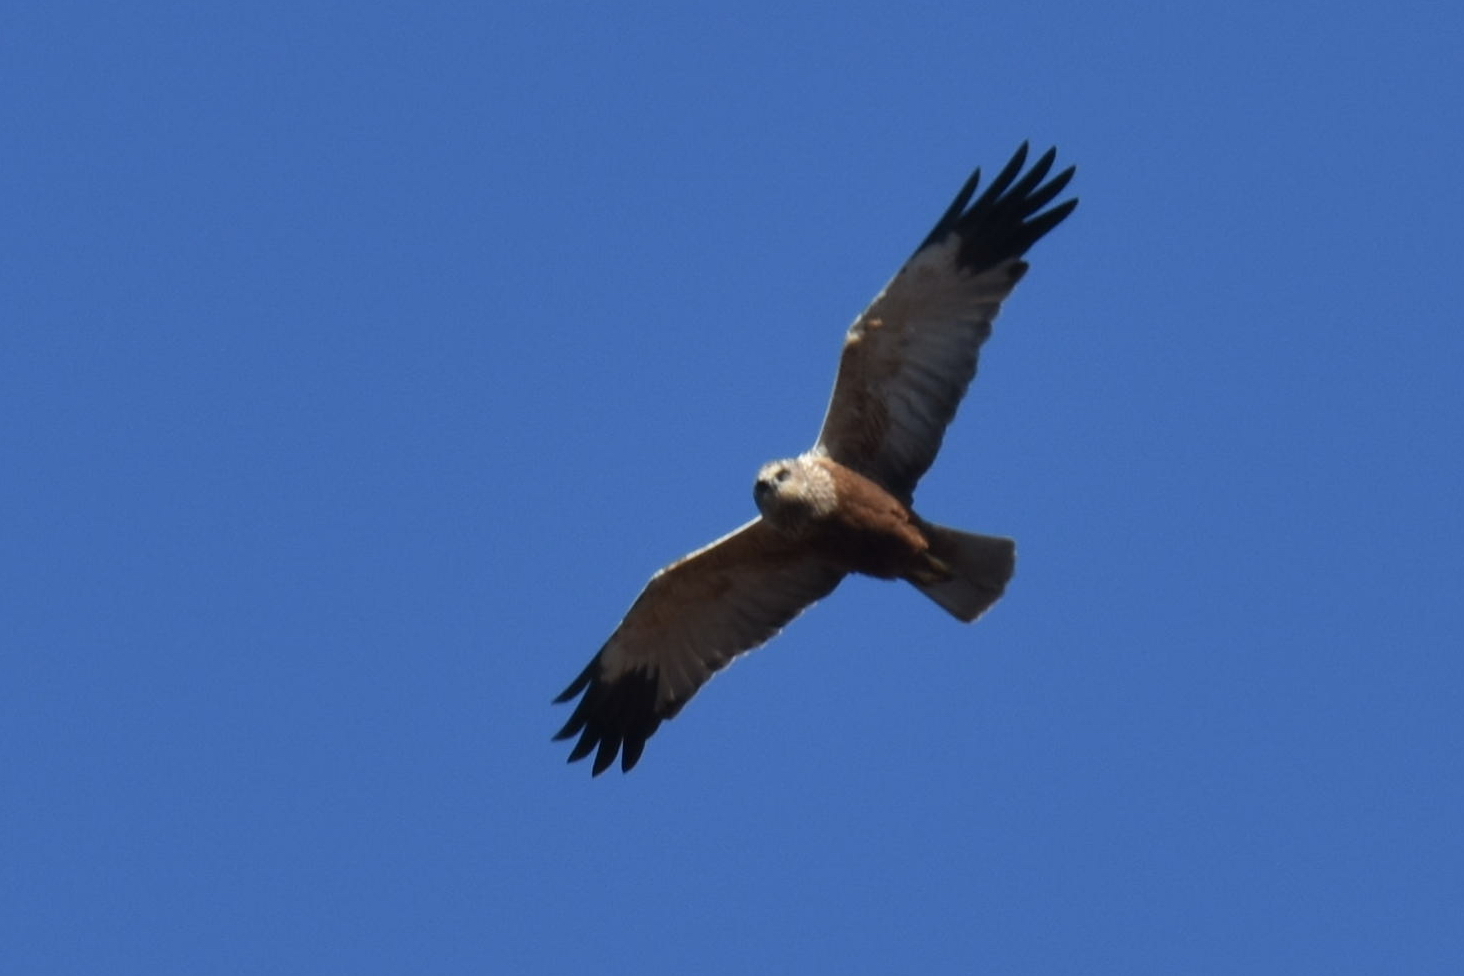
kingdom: Animalia
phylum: Chordata
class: Aves
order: Accipitriformes
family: Accipitridae
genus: Circus
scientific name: Circus aeruginosus
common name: Western marsh harrier
